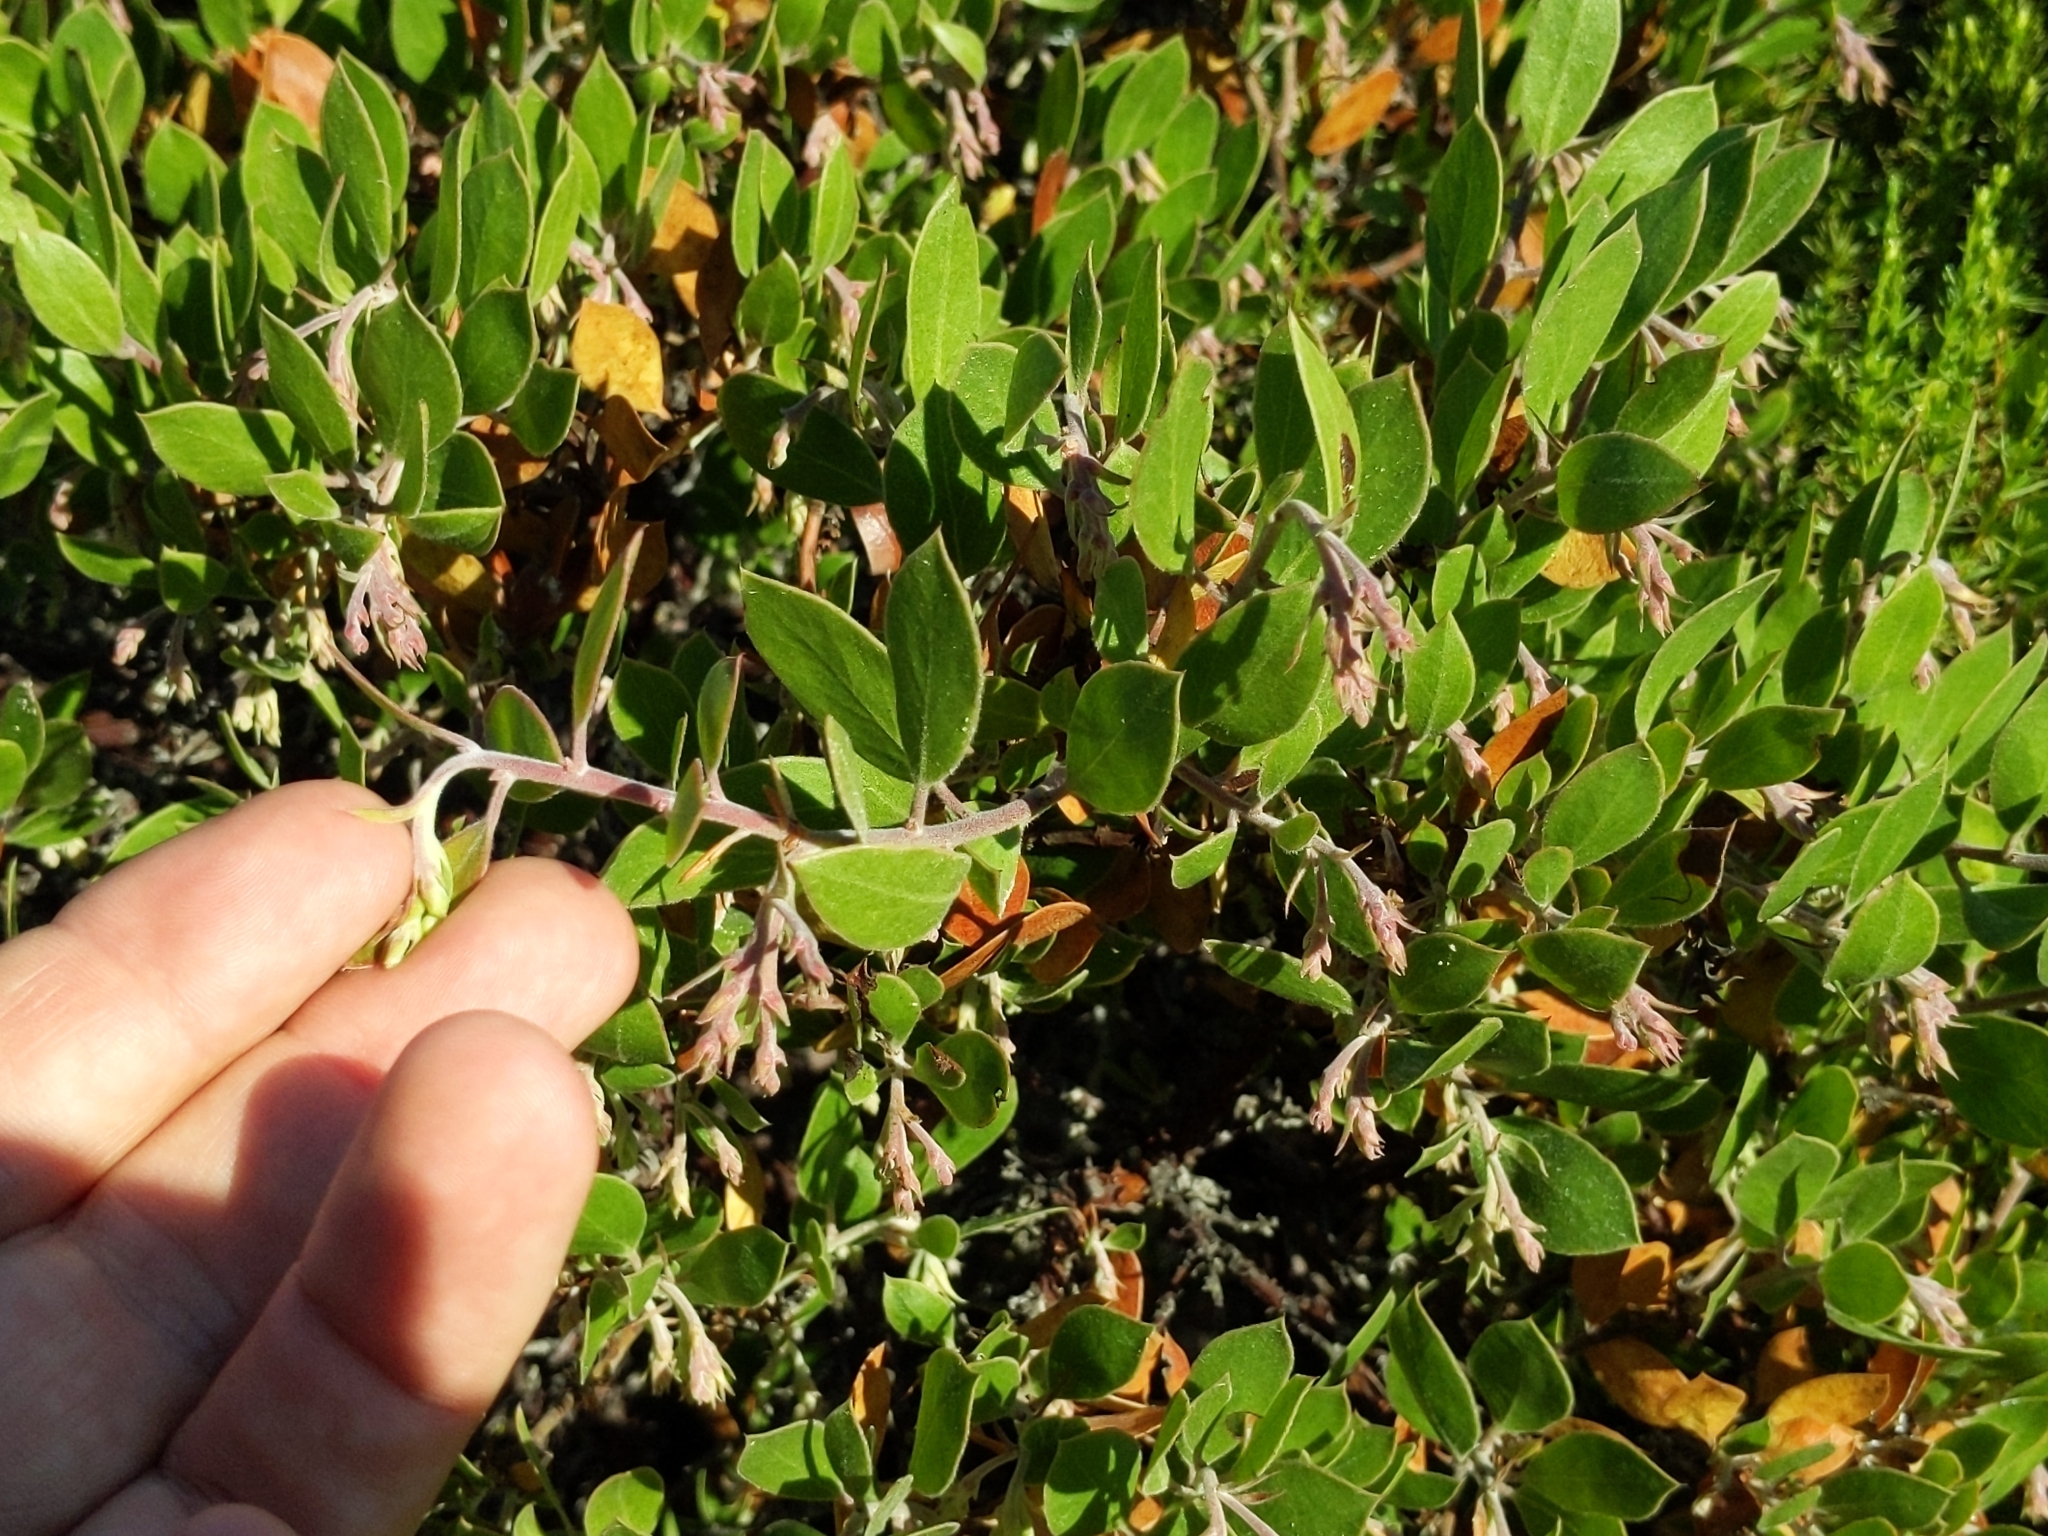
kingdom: Plantae
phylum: Tracheophyta
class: Magnoliopsida
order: Ericales
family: Ericaceae
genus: Arctostaphylos
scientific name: Arctostaphylos rudis
